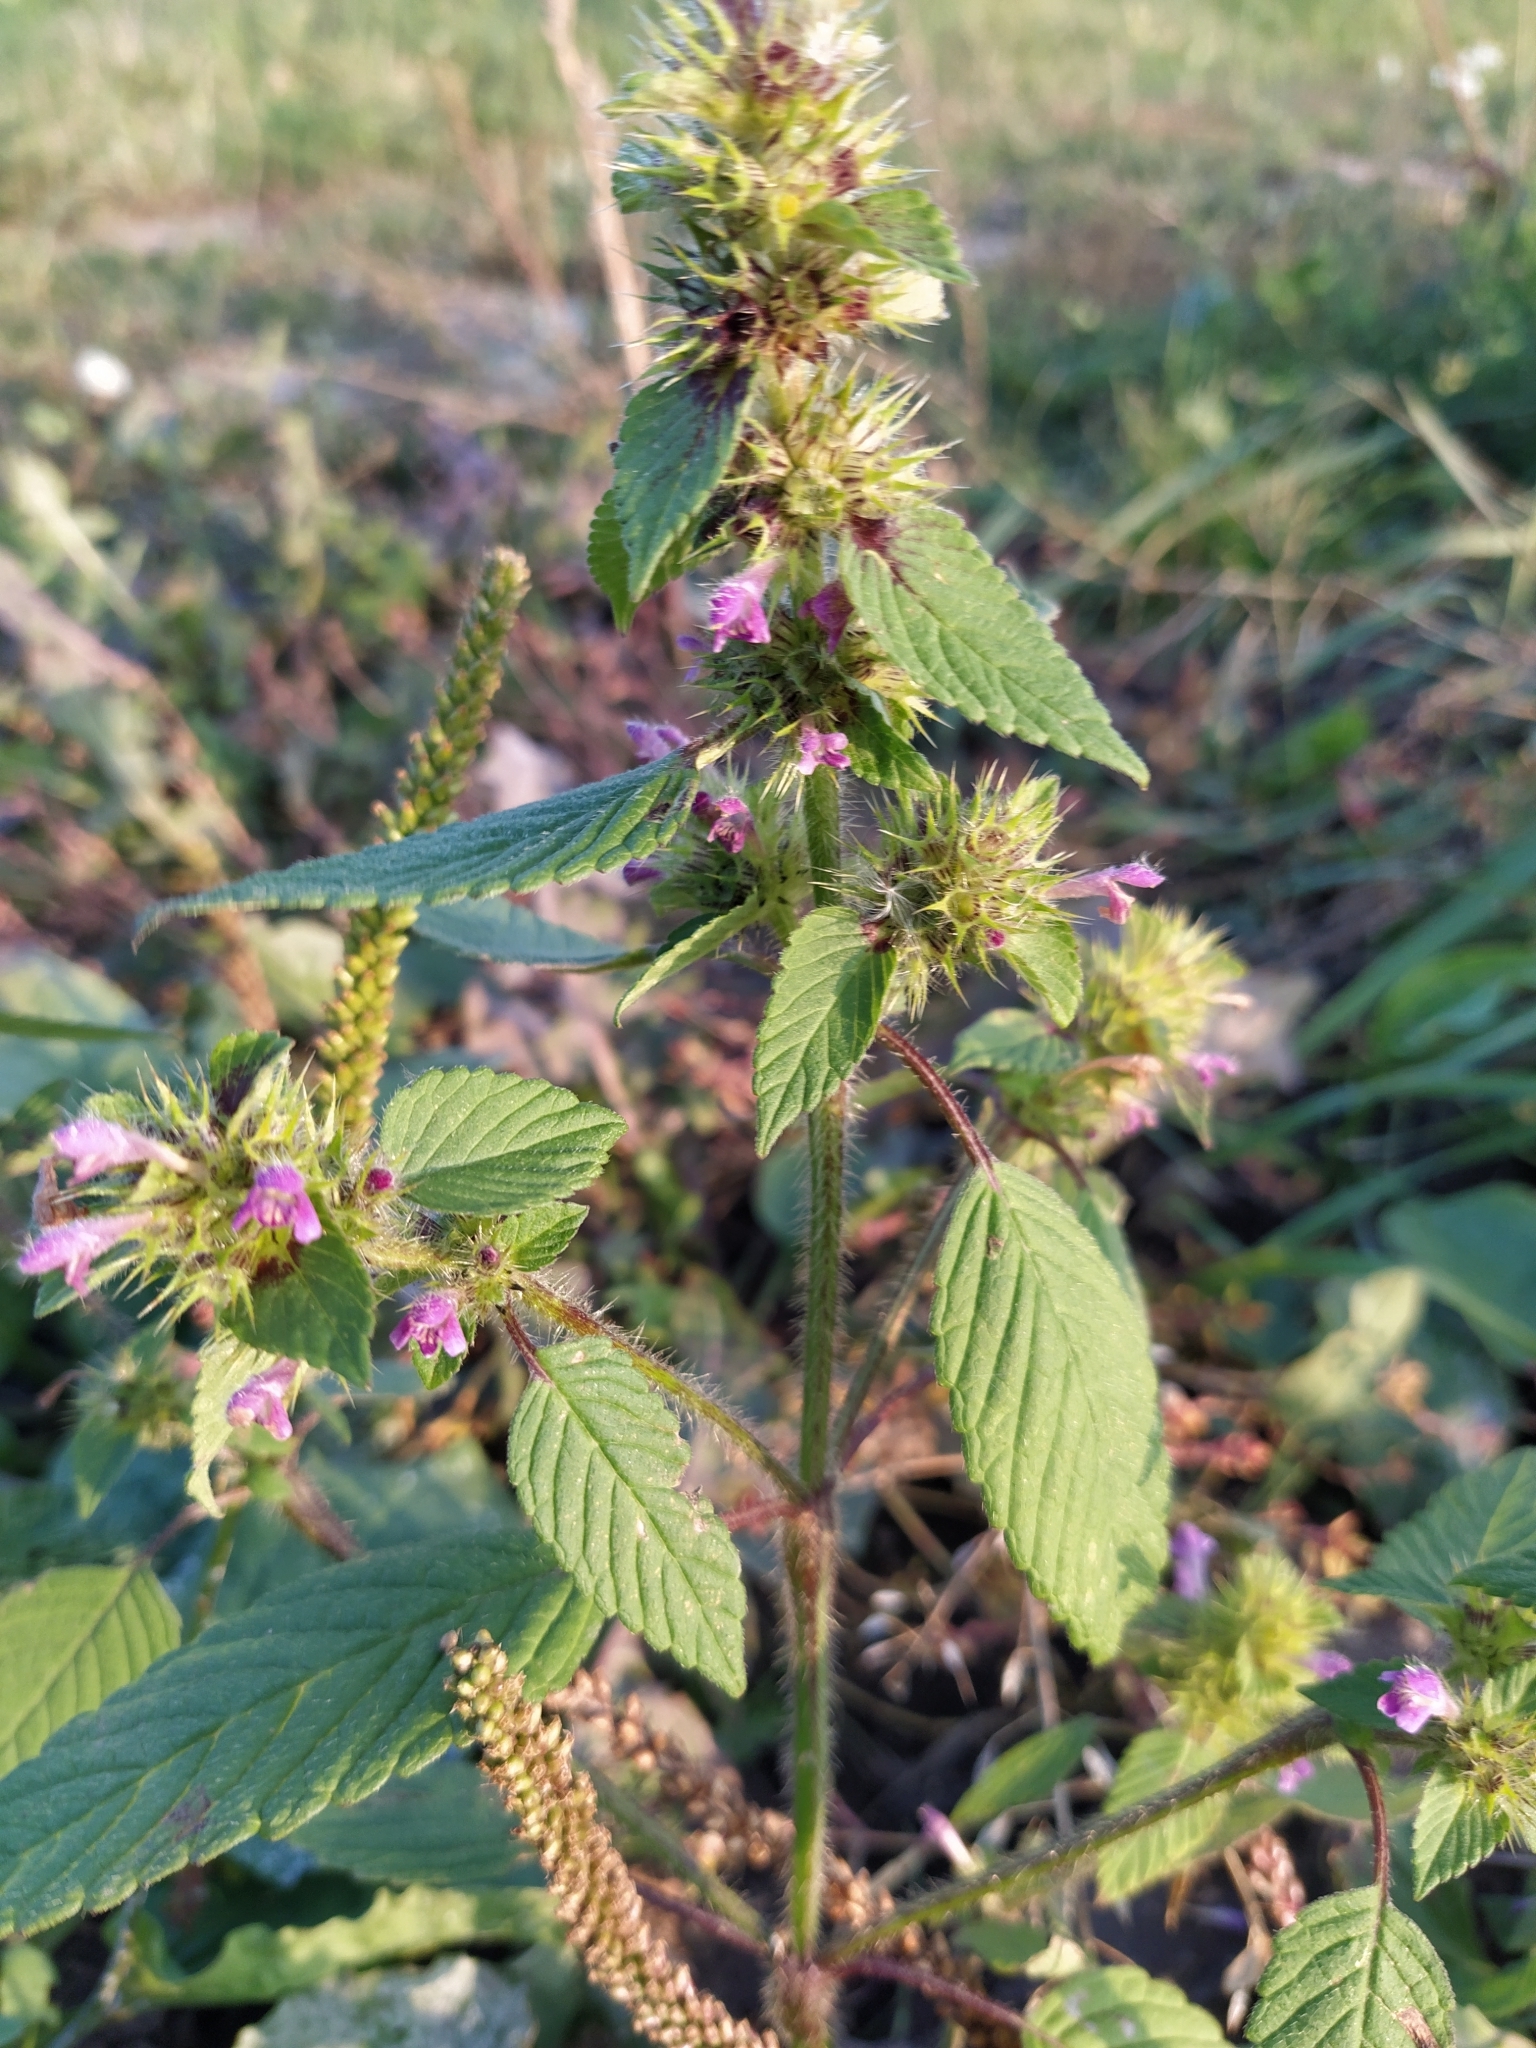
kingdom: Plantae
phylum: Tracheophyta
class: Magnoliopsida
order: Lamiales
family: Lamiaceae
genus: Galeopsis
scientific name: Galeopsis bifida
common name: Bifid hemp-nettle
